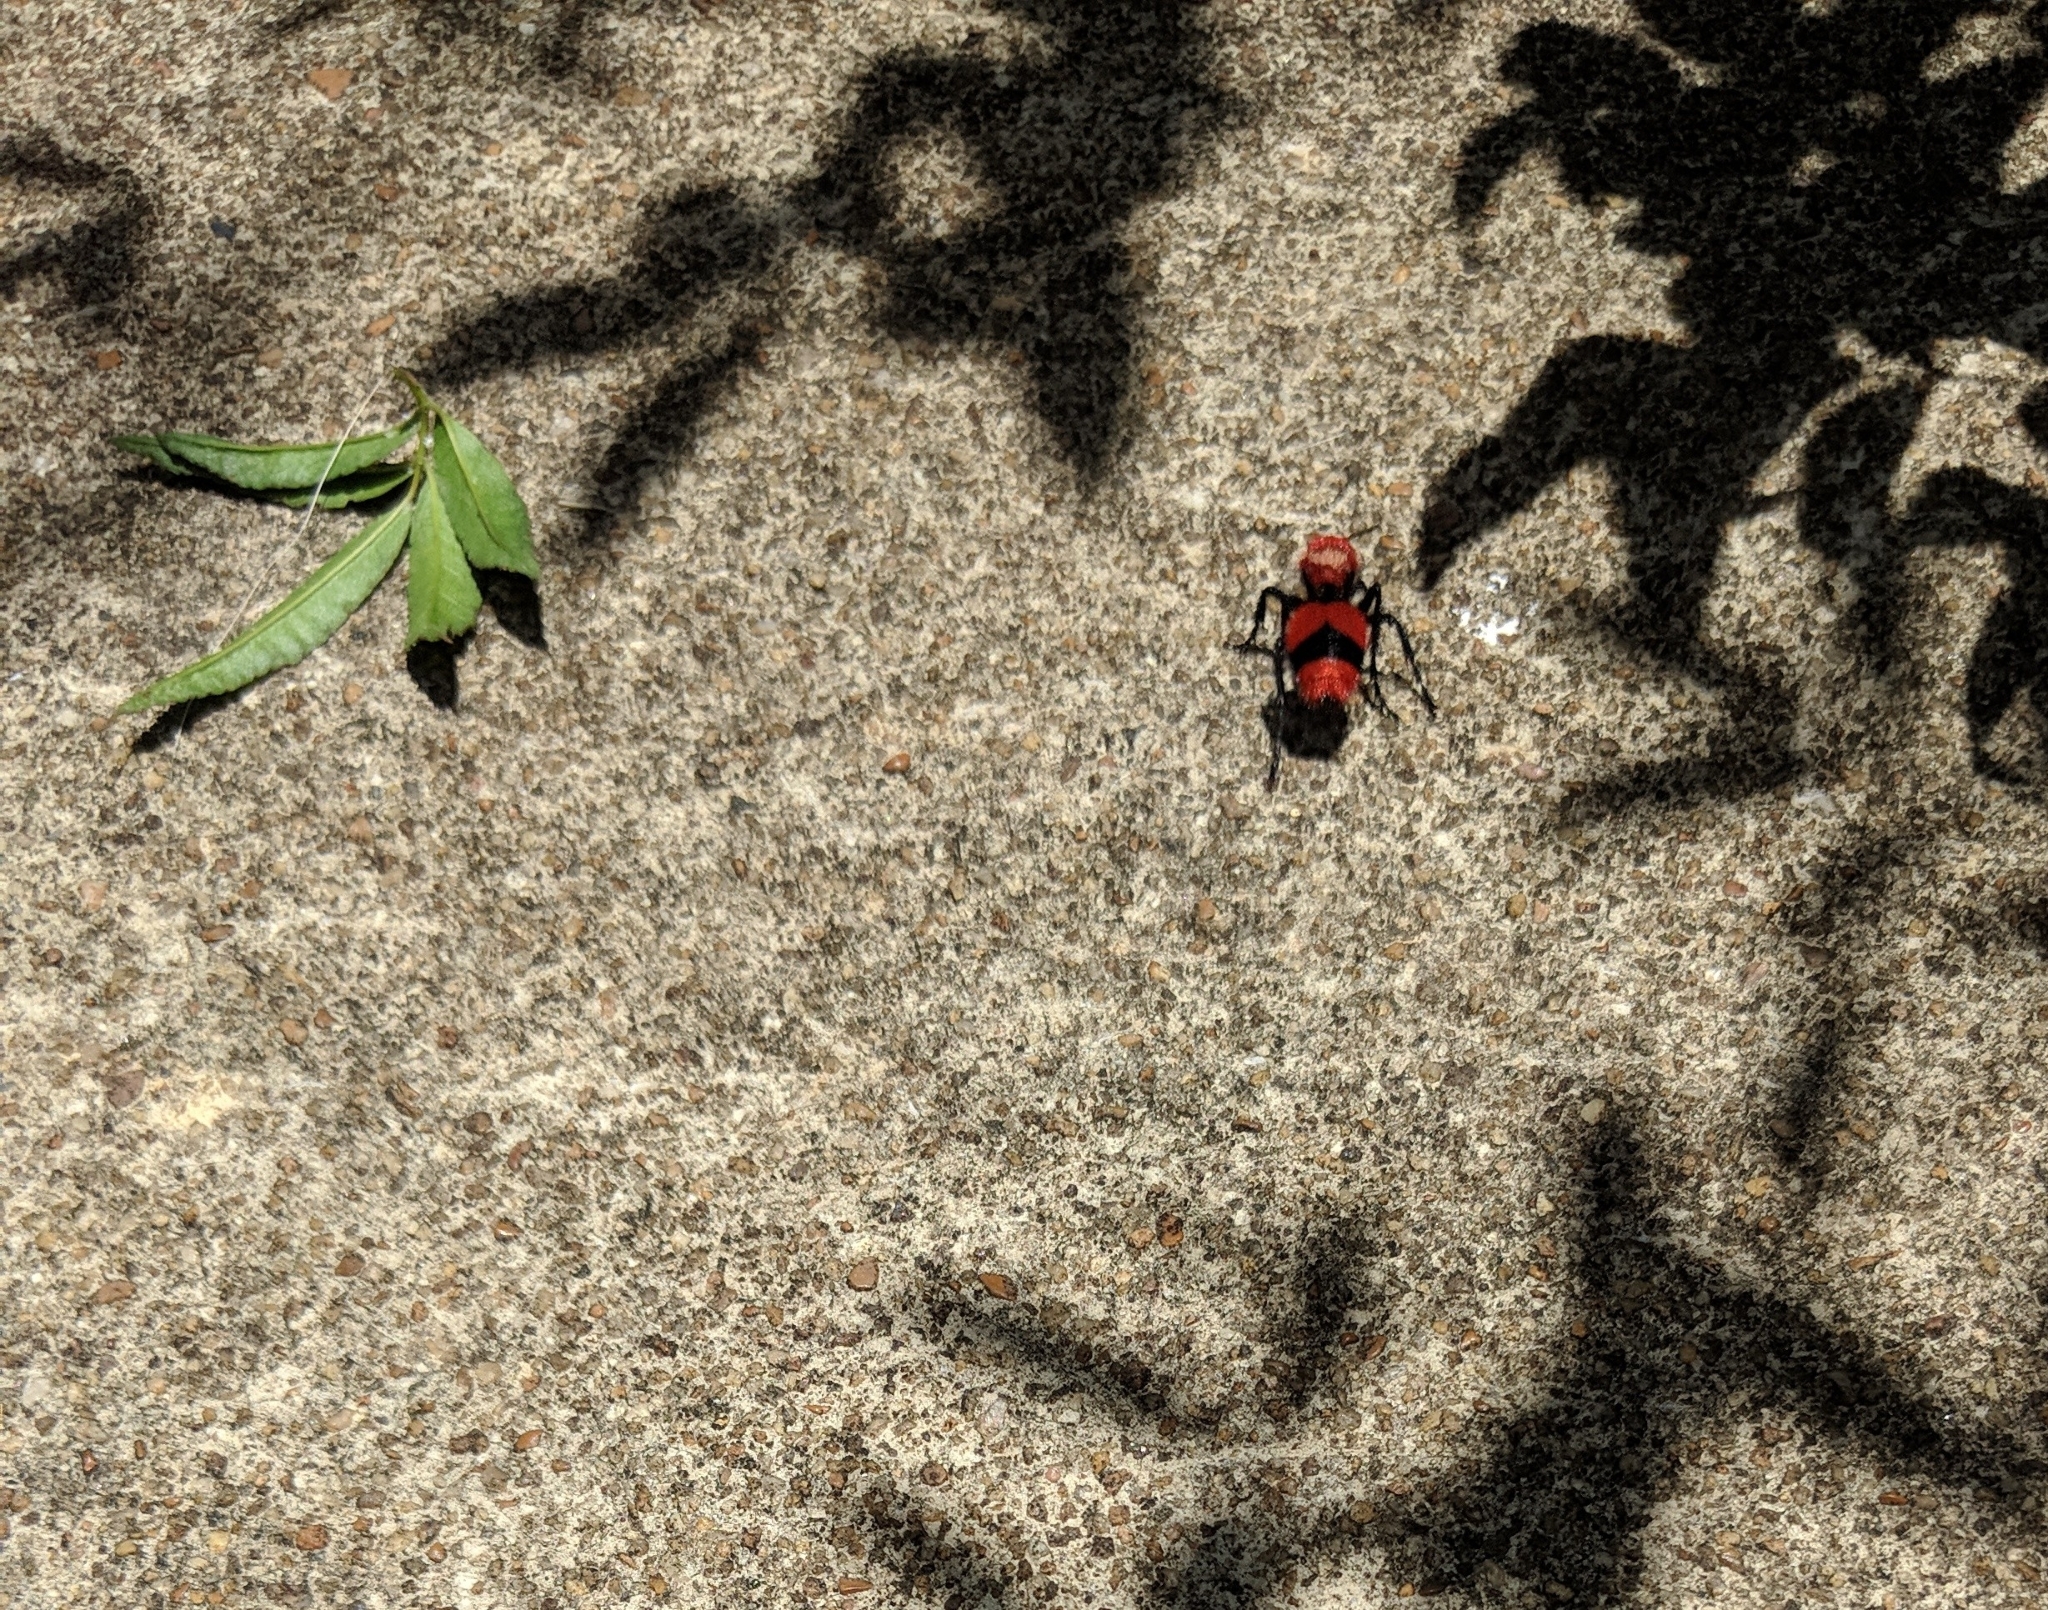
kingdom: Animalia
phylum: Arthropoda
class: Insecta
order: Hymenoptera
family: Mutillidae
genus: Dasymutilla
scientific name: Dasymutilla occidentalis
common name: Common eastern velvet ant
